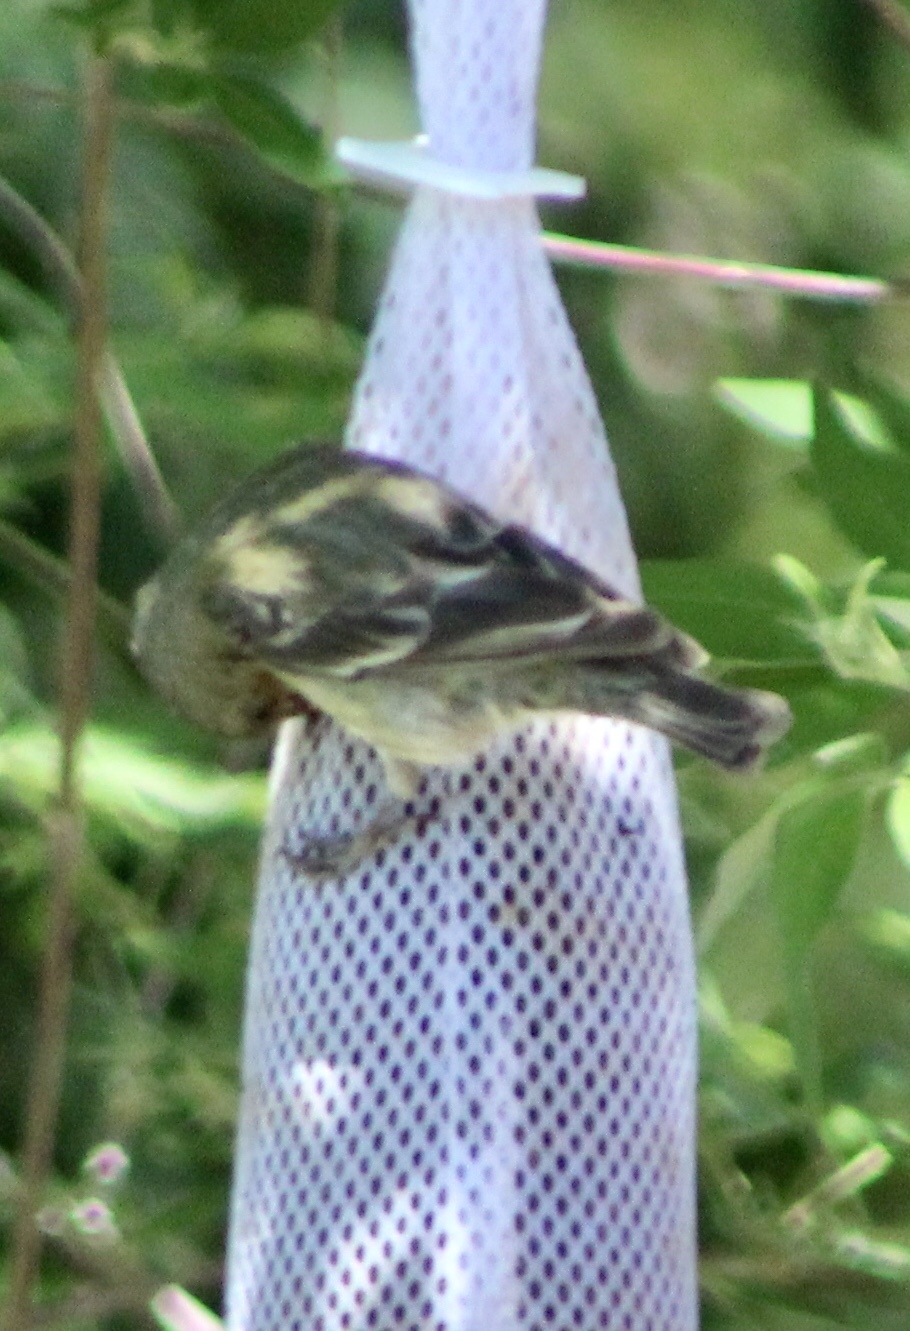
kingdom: Animalia
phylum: Chordata
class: Aves
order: Passeriformes
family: Fringillidae
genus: Spinus
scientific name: Spinus psaltria
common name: Lesser goldfinch
